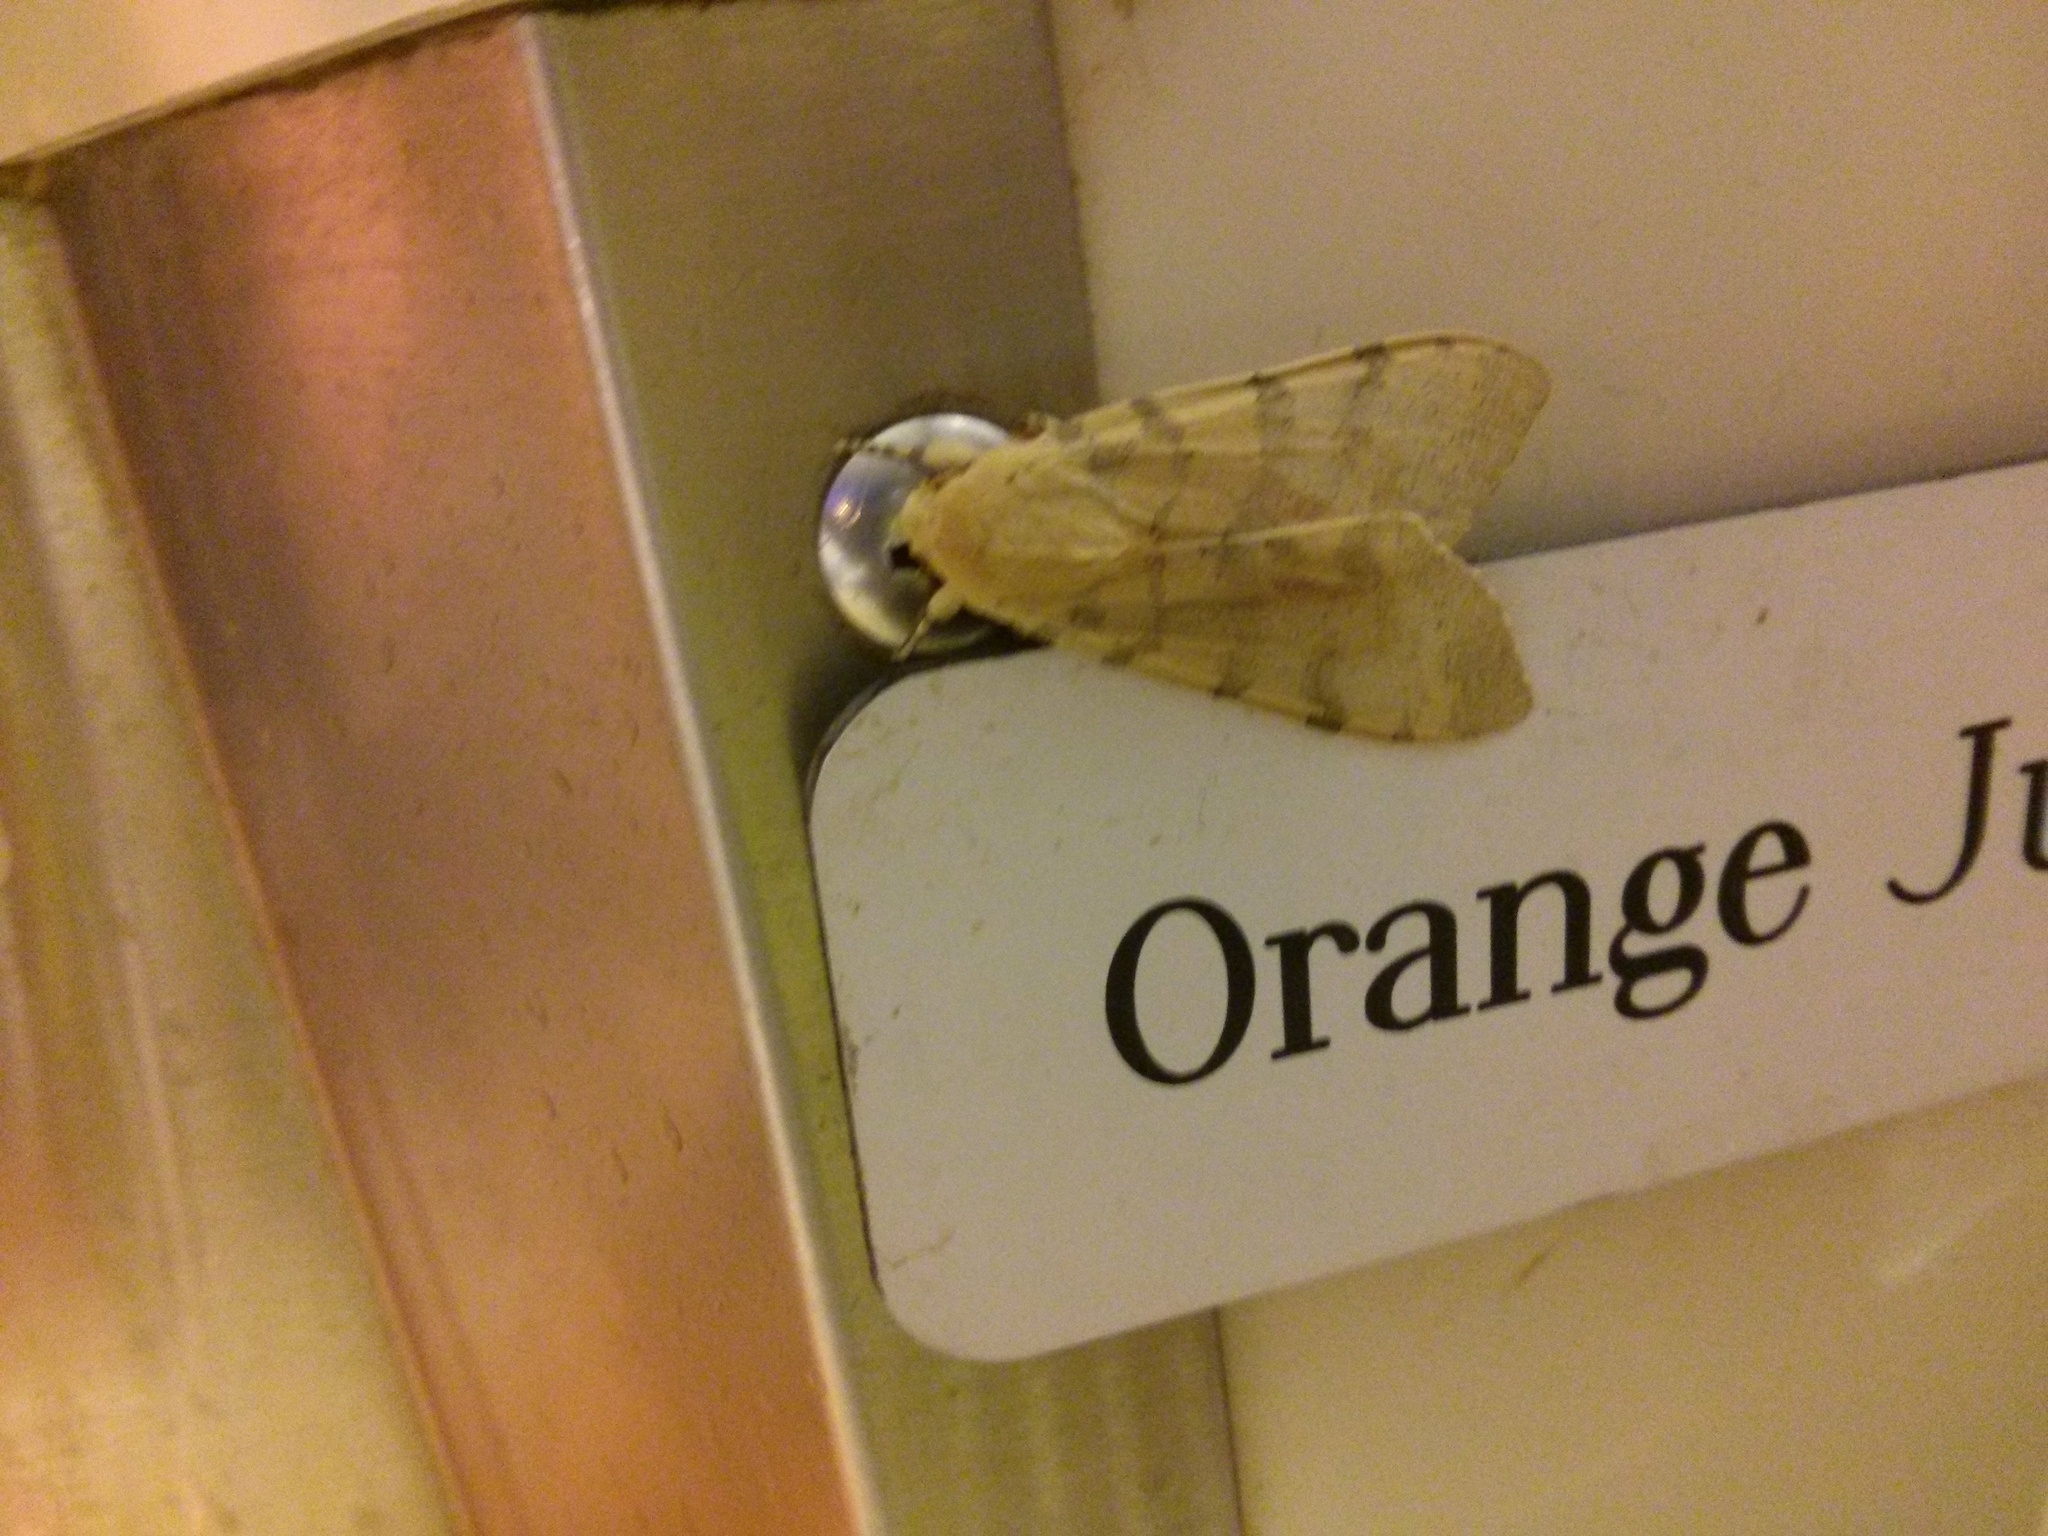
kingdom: Animalia
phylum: Arthropoda
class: Insecta
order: Lepidoptera
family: Erebidae
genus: Hemihyalea
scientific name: Hemihyalea edwardsii
